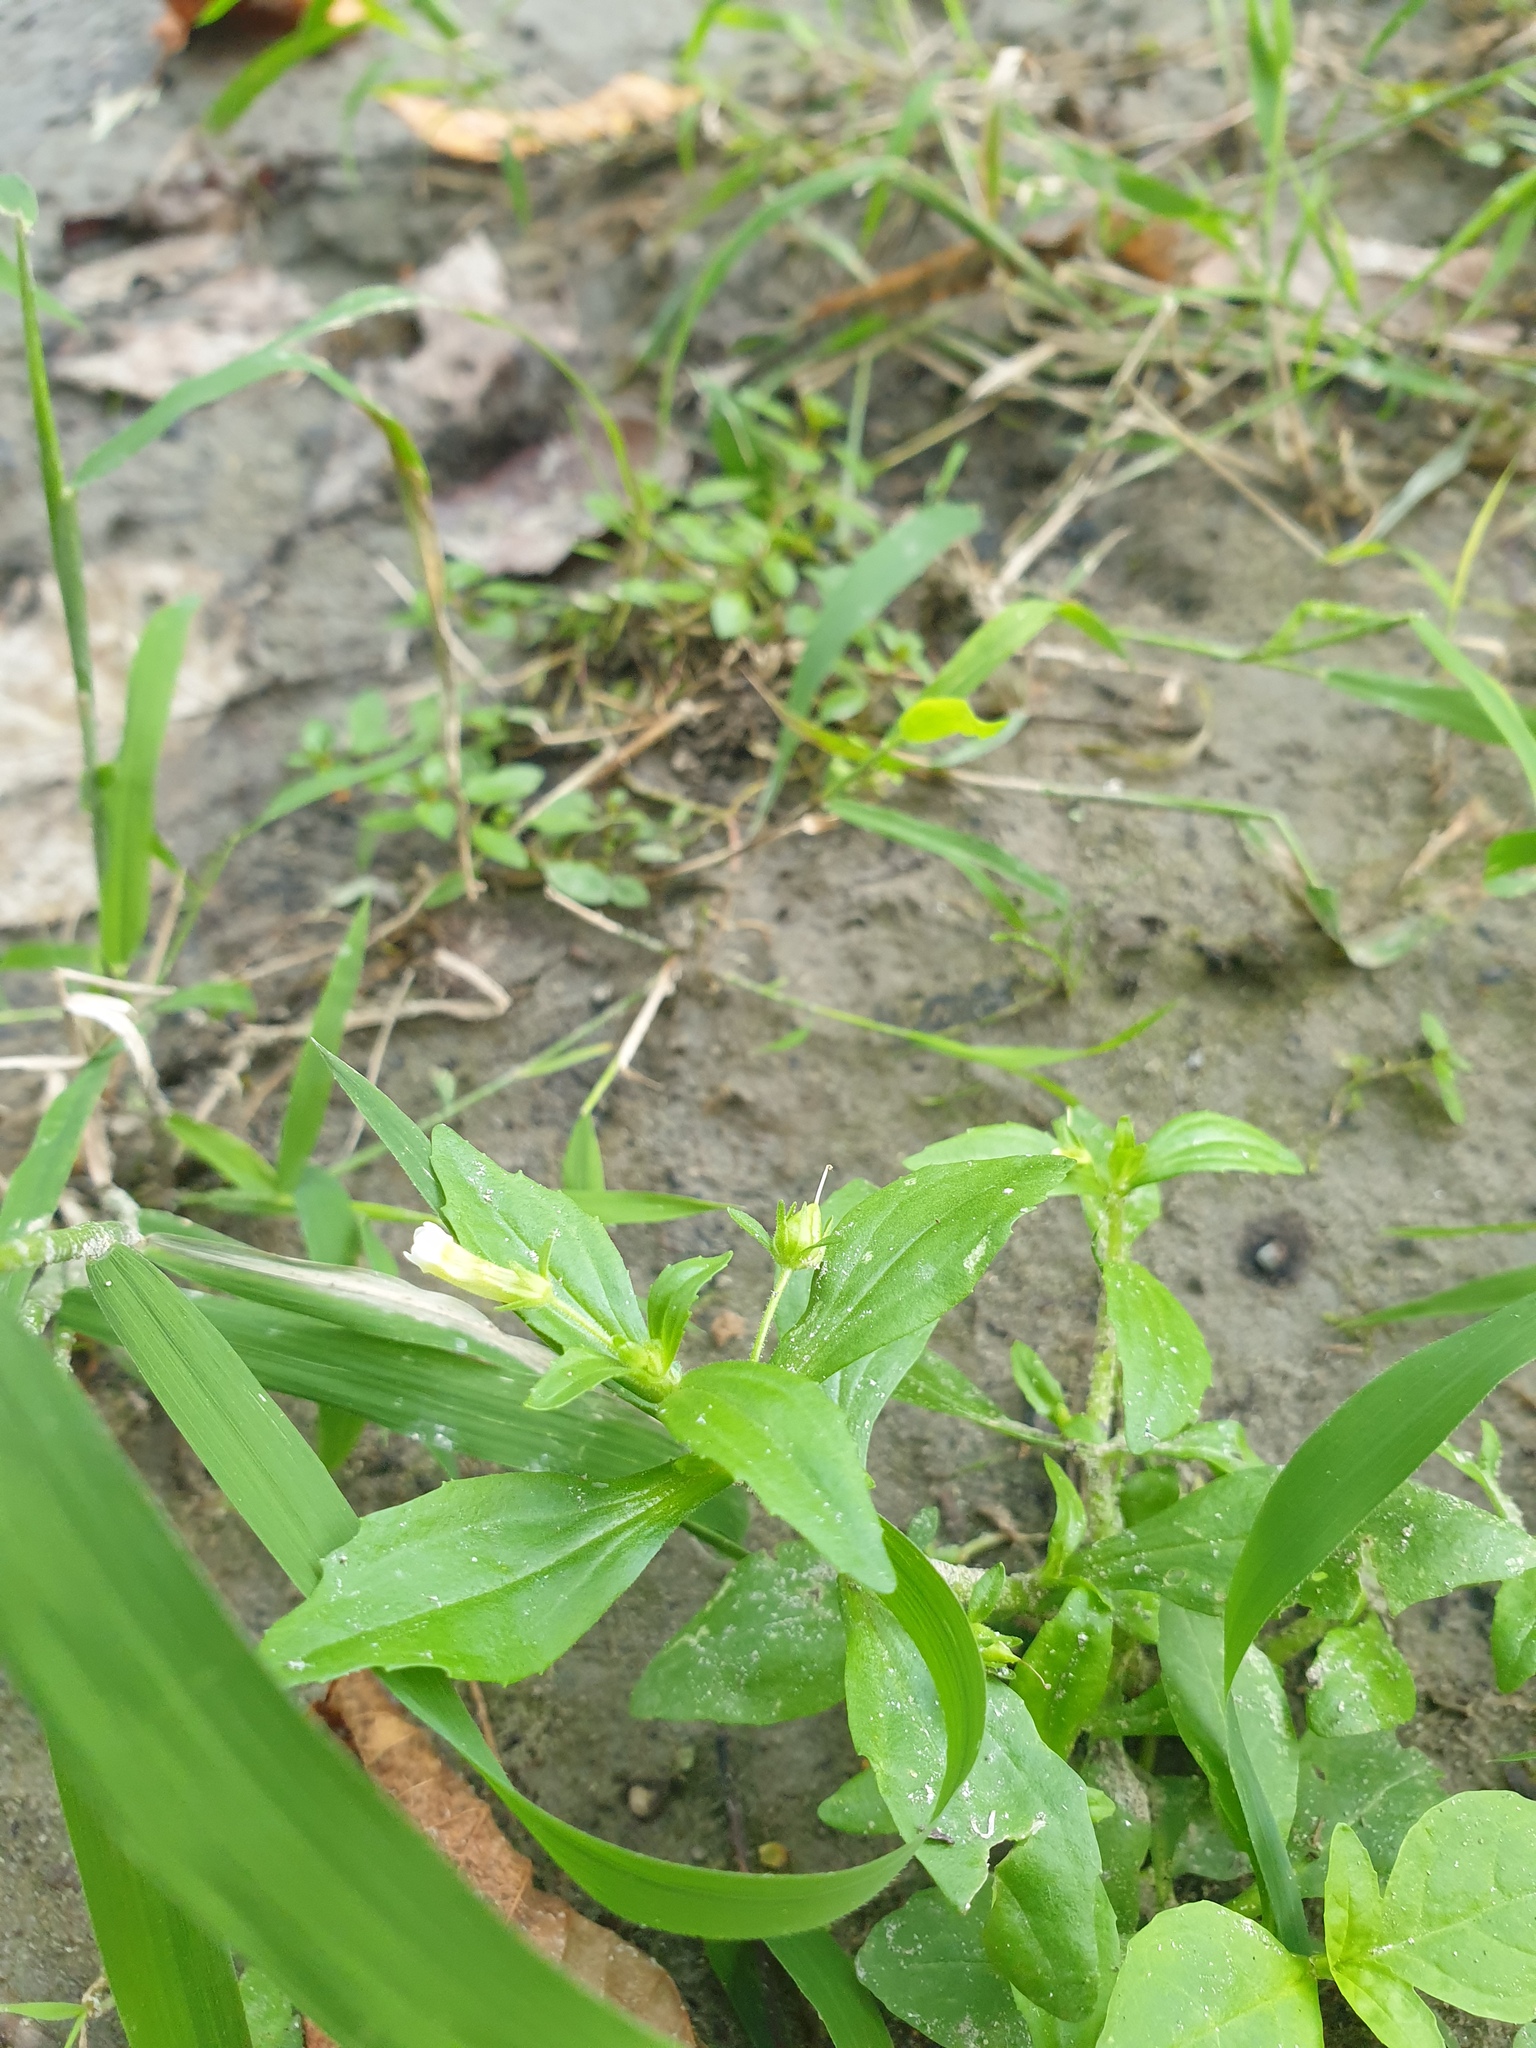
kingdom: Plantae
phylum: Tracheophyta
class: Magnoliopsida
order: Lamiales
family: Plantaginaceae
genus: Gratiola
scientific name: Gratiola neglecta
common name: American hedge-hyssop
